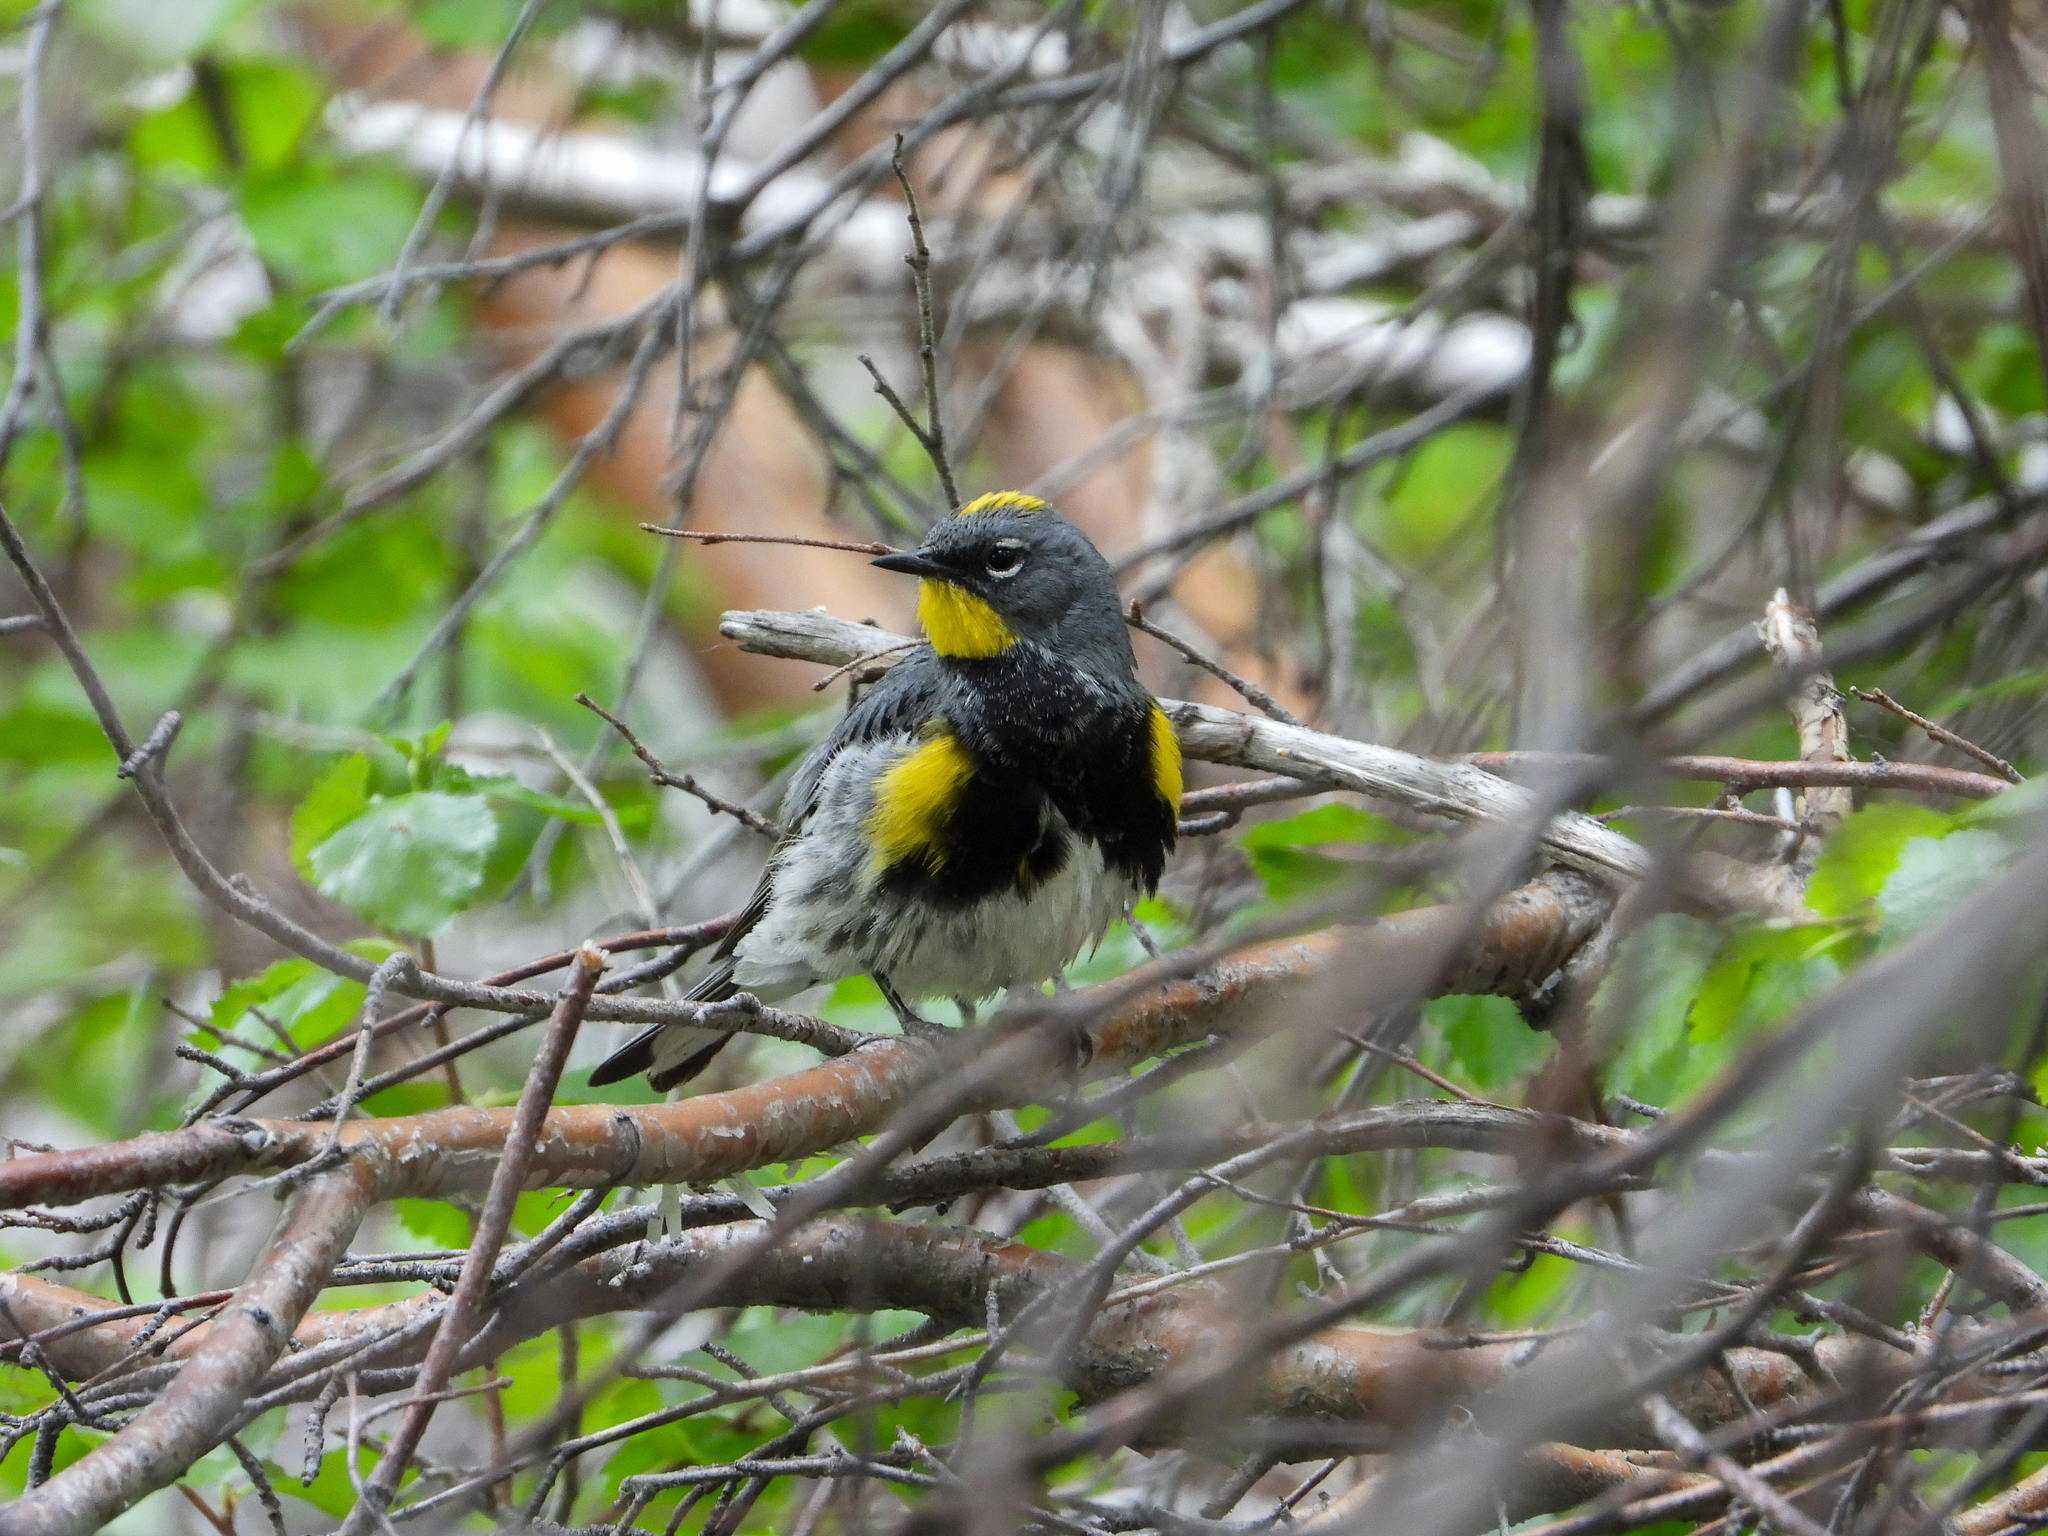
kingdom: Animalia
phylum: Chordata
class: Aves
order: Passeriformes
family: Parulidae
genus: Setophaga
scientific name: Setophaga auduboni
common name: Audubon's warbler
